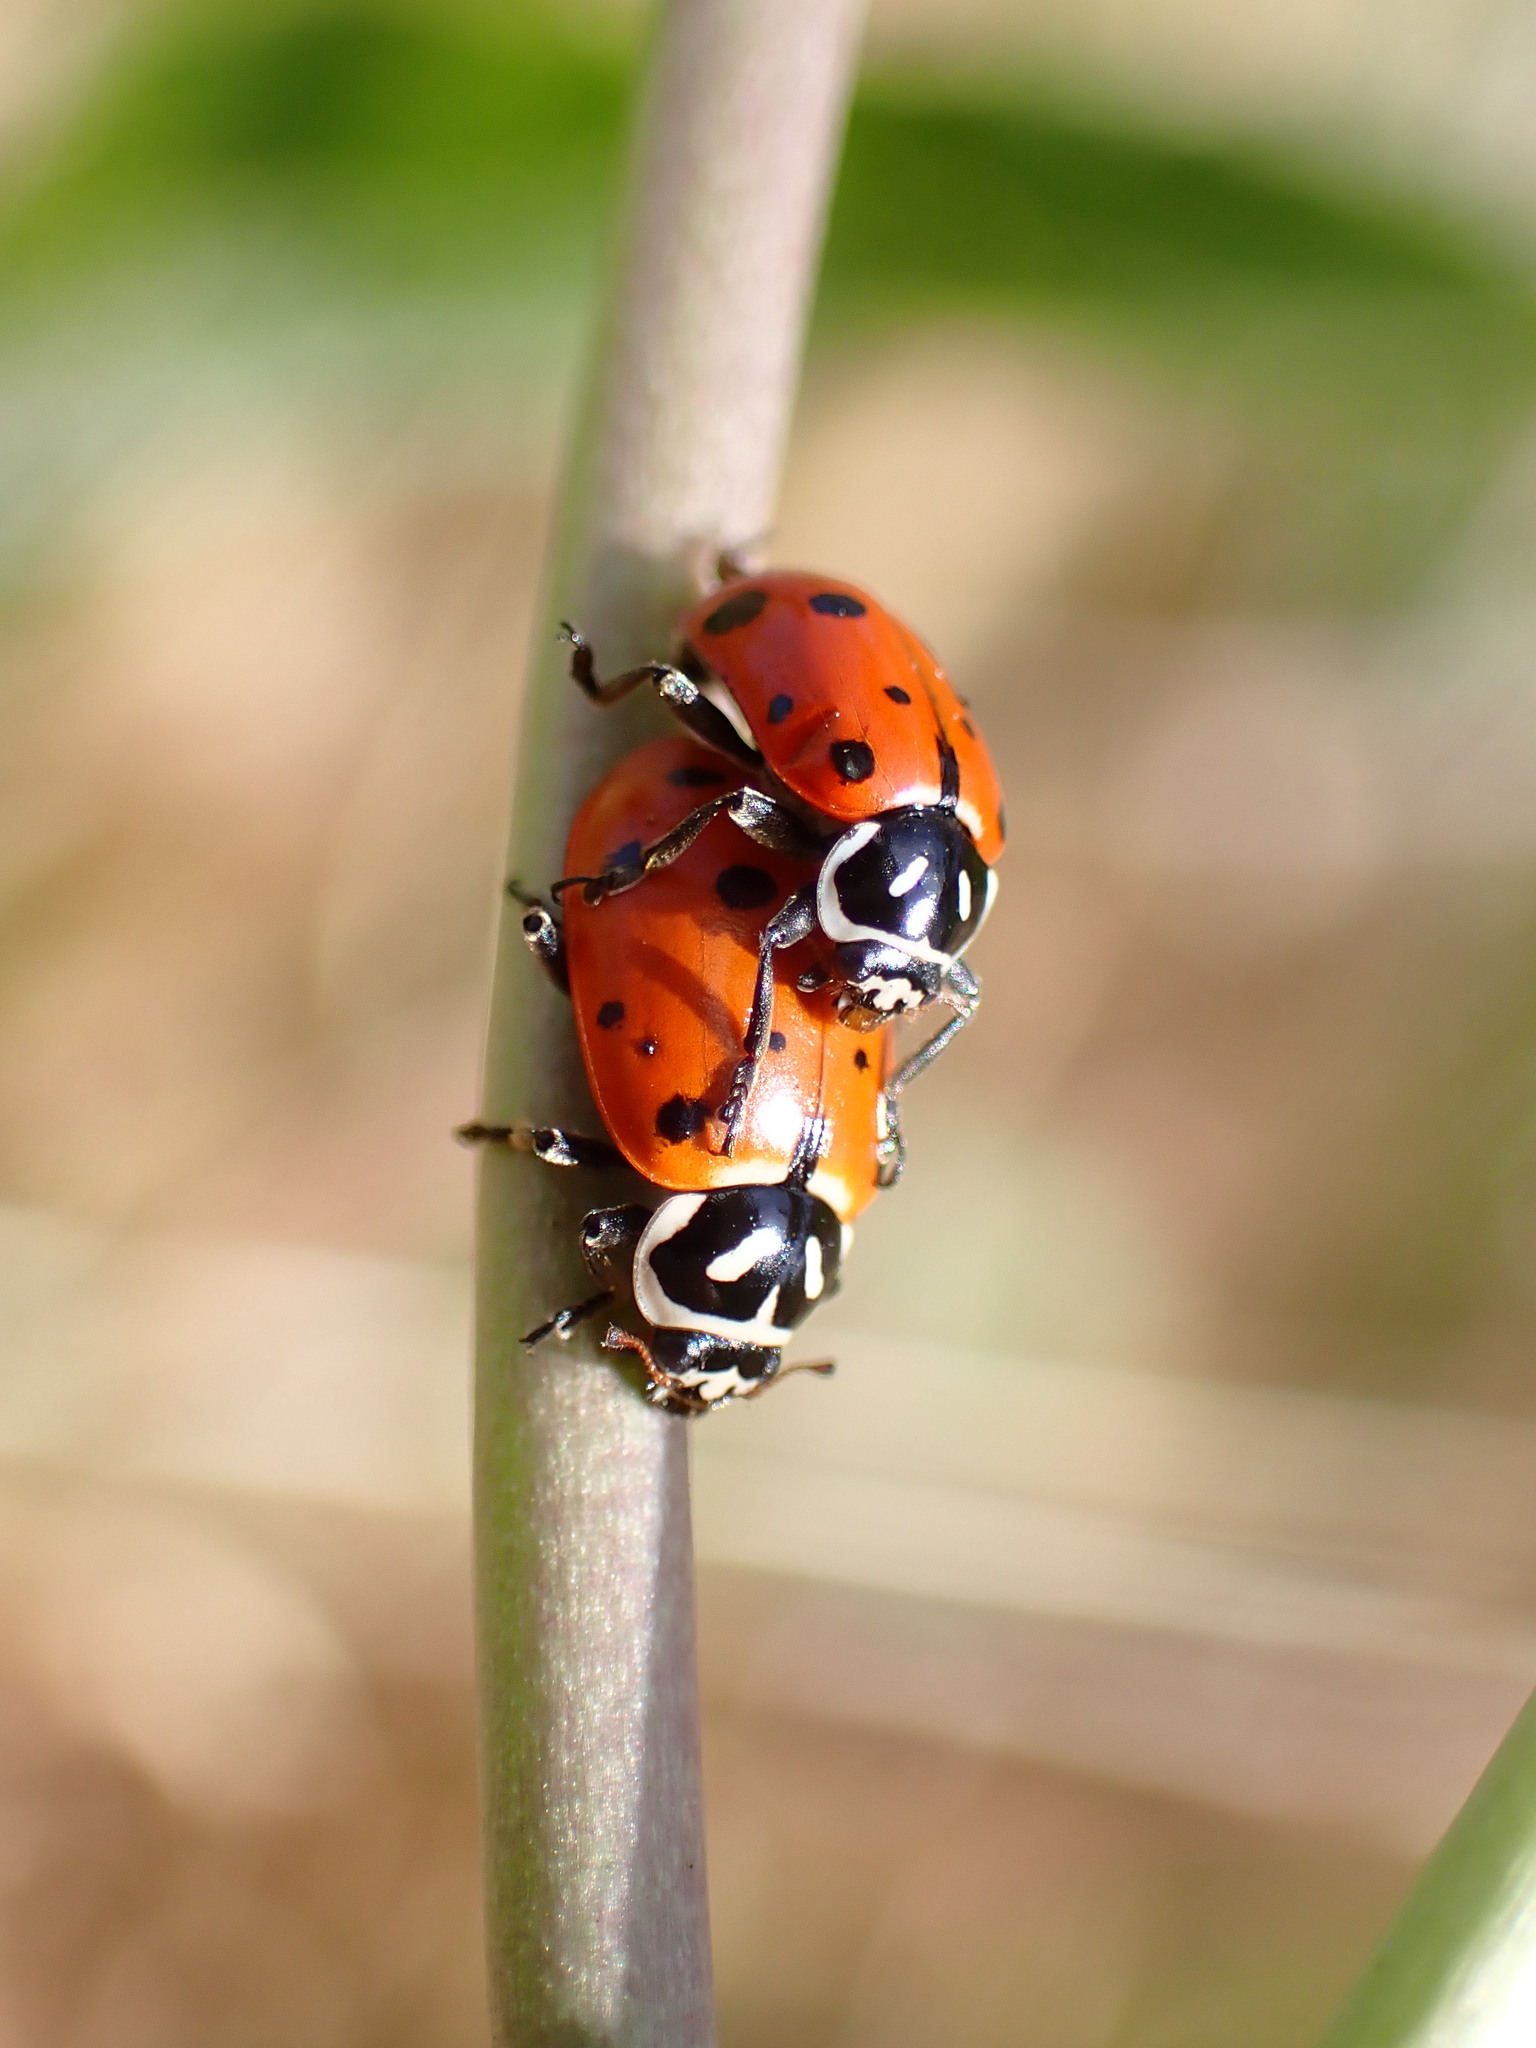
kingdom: Animalia
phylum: Arthropoda
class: Insecta
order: Coleoptera
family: Coccinellidae
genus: Hippodamia
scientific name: Hippodamia convergens
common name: Convergent lady beetle
